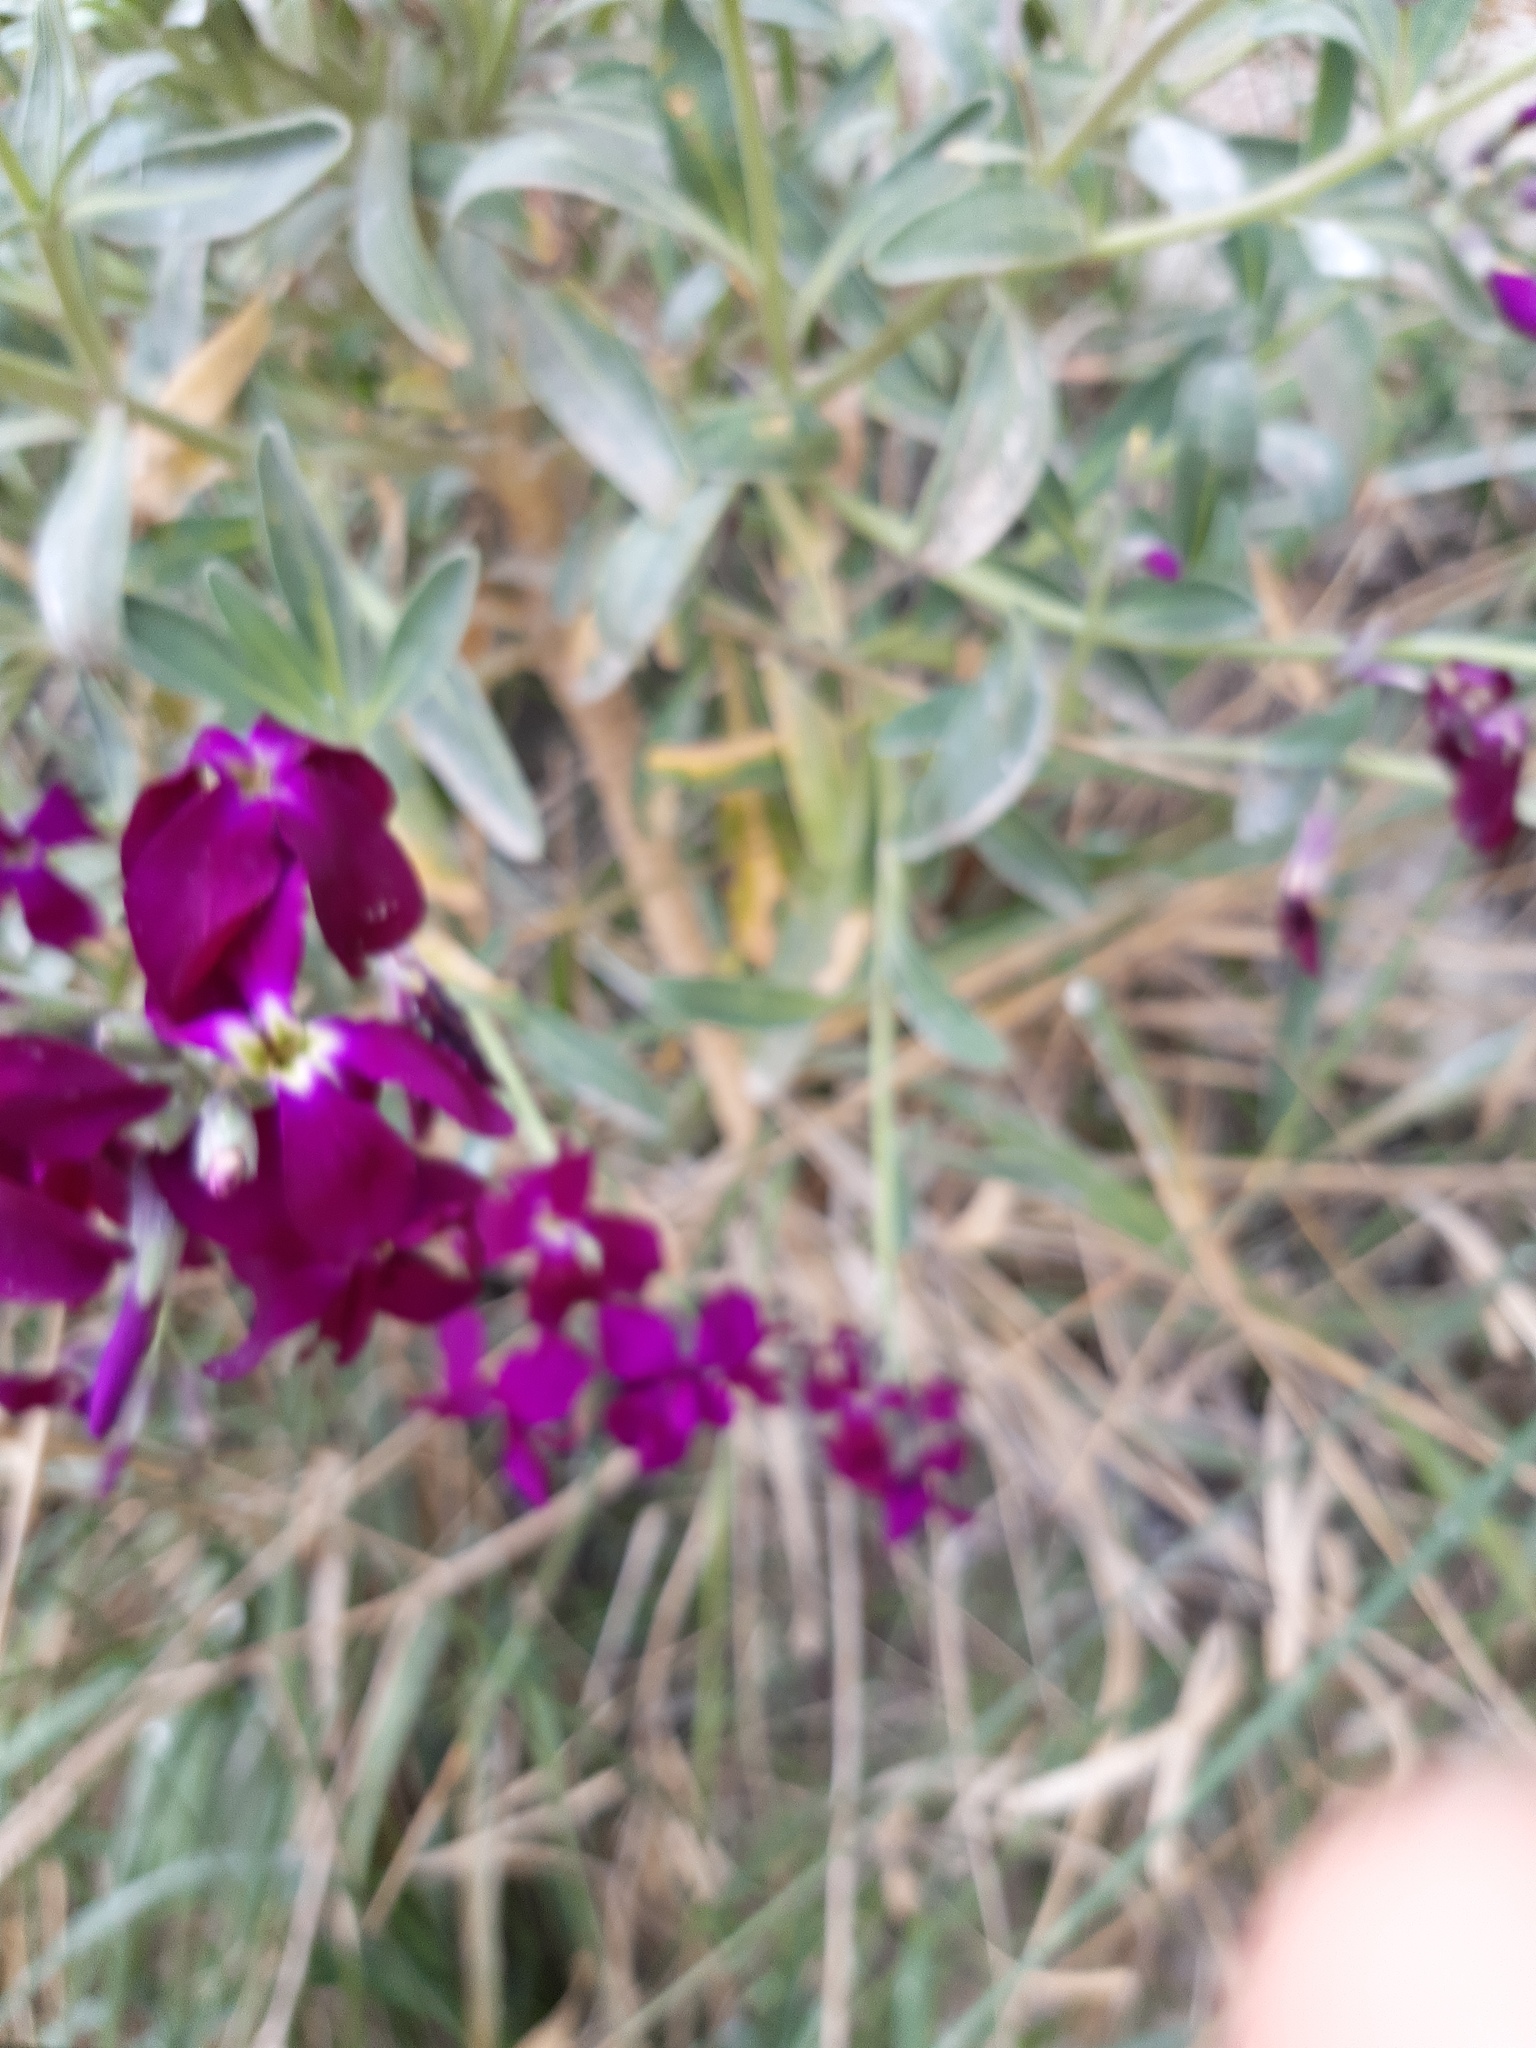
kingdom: Plantae
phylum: Tracheophyta
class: Magnoliopsida
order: Brassicales
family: Brassicaceae
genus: Matthiola
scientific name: Matthiola incana
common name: Hoary stock
